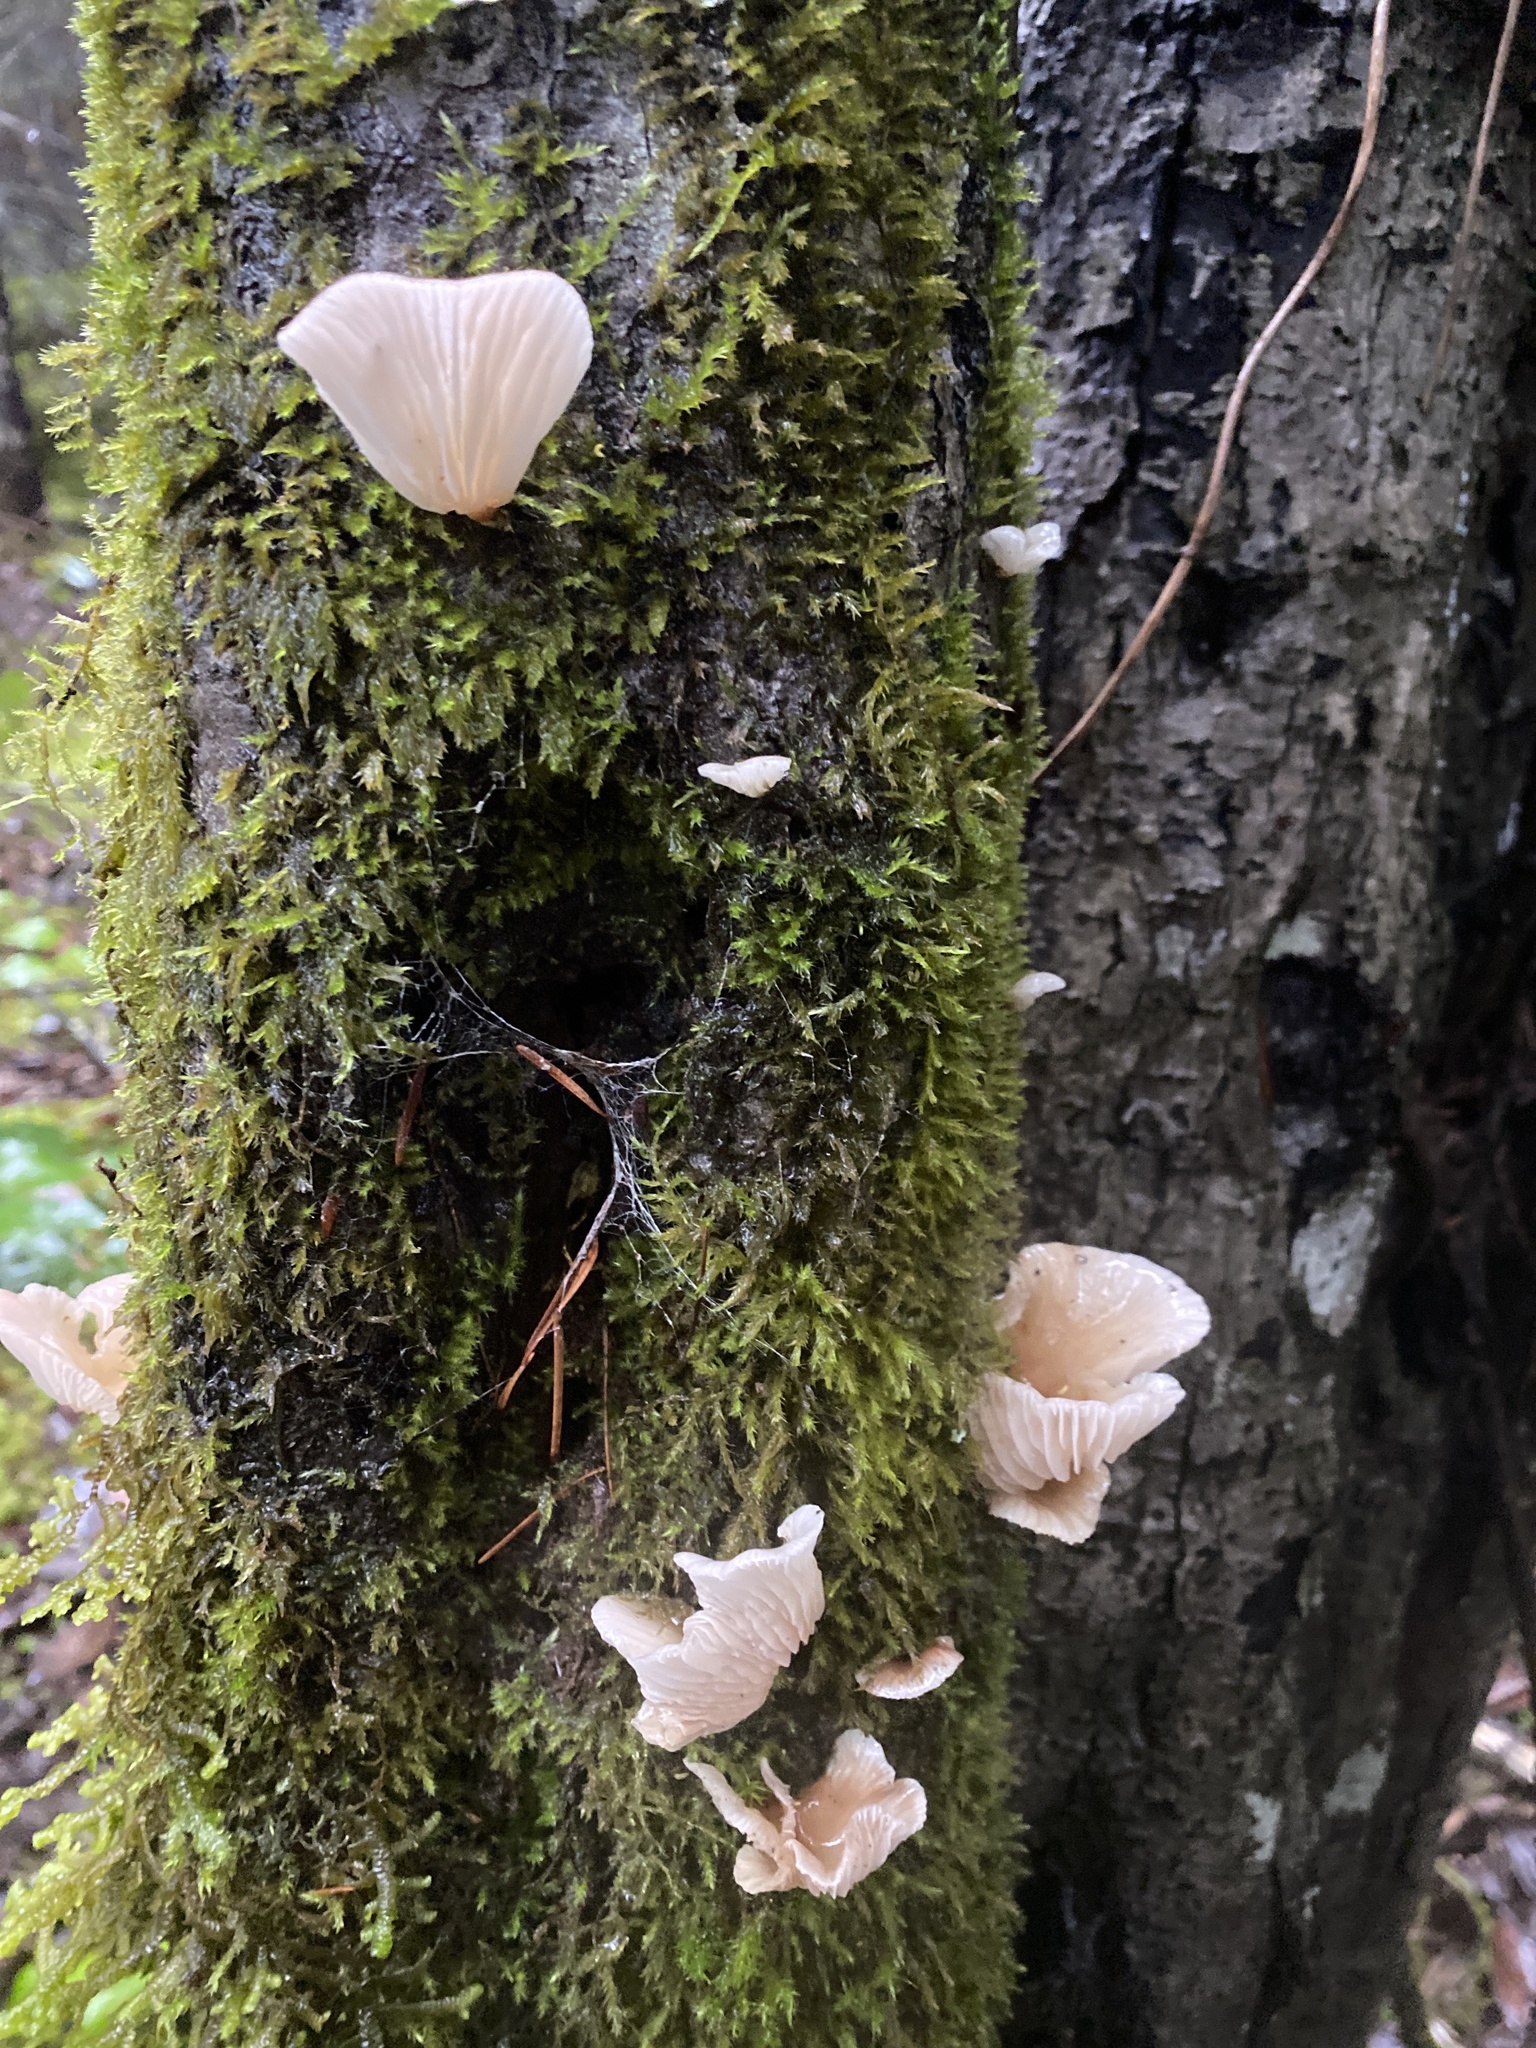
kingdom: Fungi
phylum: Basidiomycota
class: Agaricomycetes
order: Agaricales
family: Marasmiaceae
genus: Pleurocybella
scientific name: Pleurocybella porrigens
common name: Angel's wings
